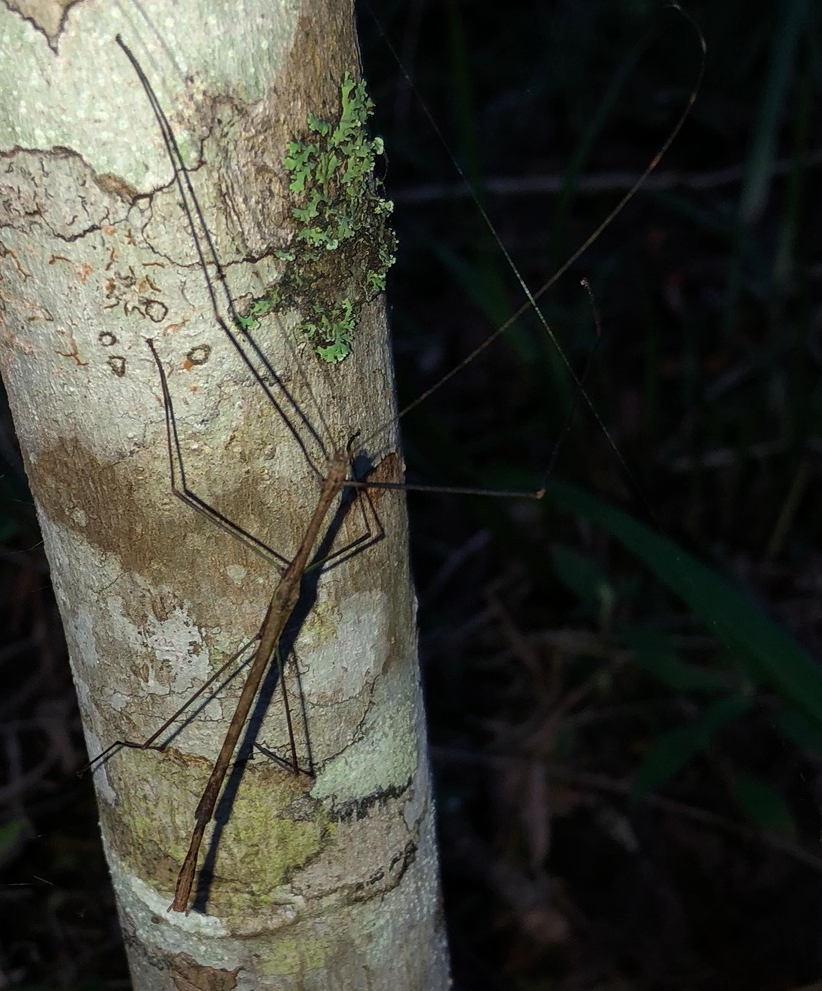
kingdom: Animalia
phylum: Arthropoda
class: Insecta
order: Phasmida
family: Lonchodidae
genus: Scionecra
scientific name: Scionecra agrionina
